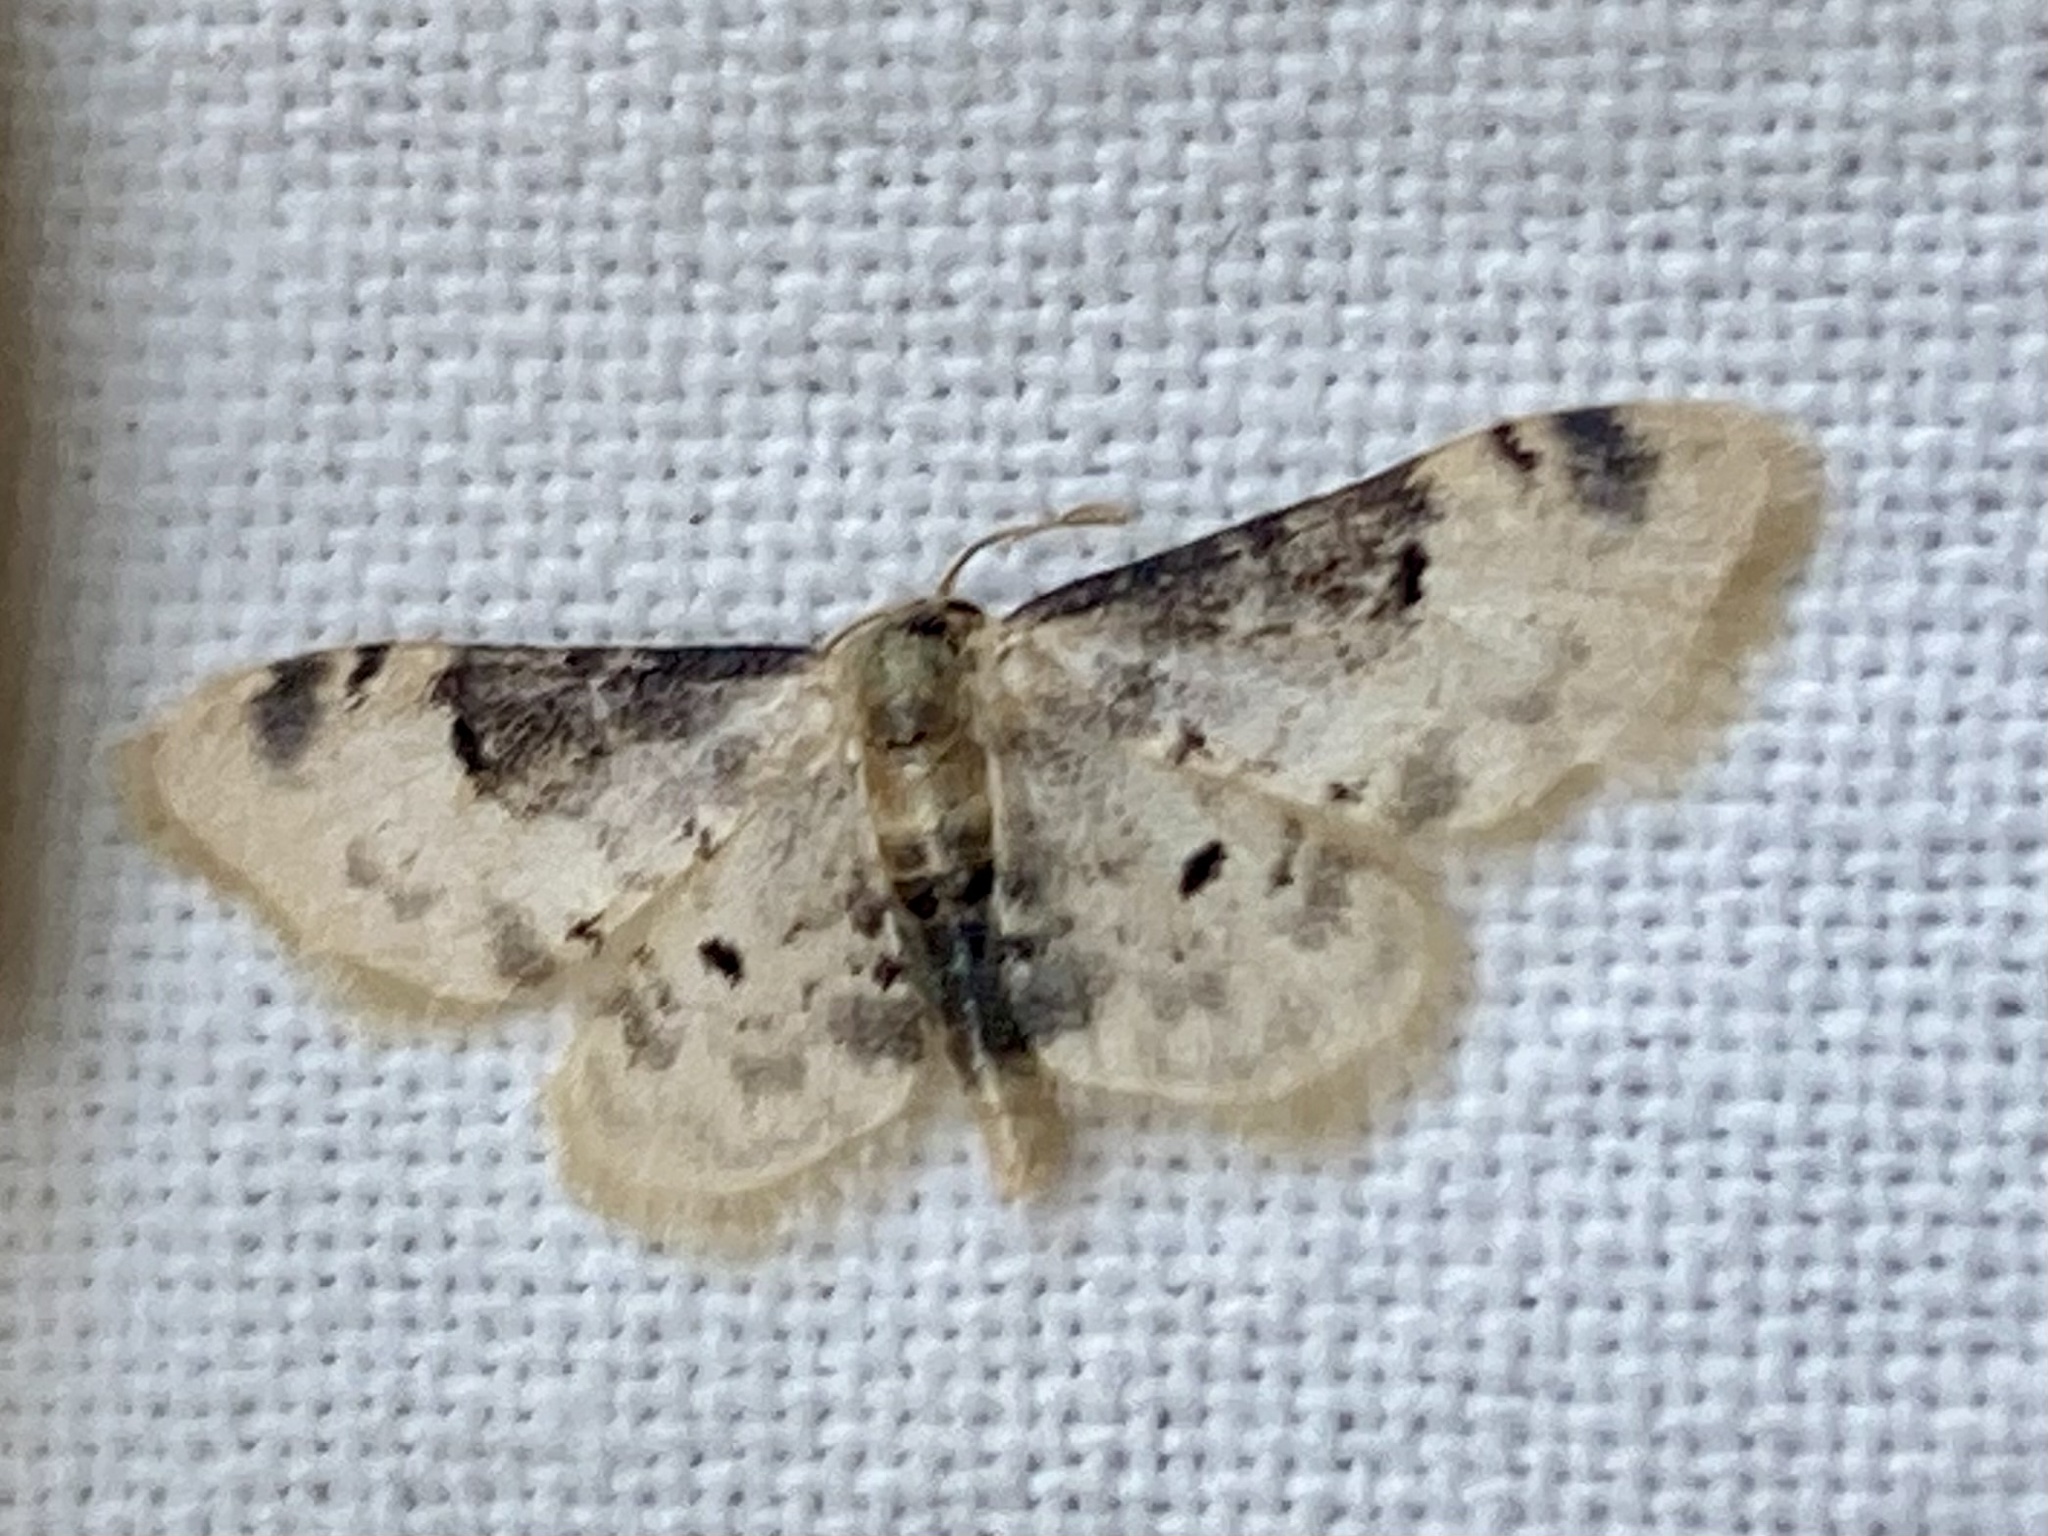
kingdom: Animalia
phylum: Arthropoda
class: Insecta
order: Lepidoptera
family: Geometridae
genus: Idaea
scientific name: Idaea filicata
